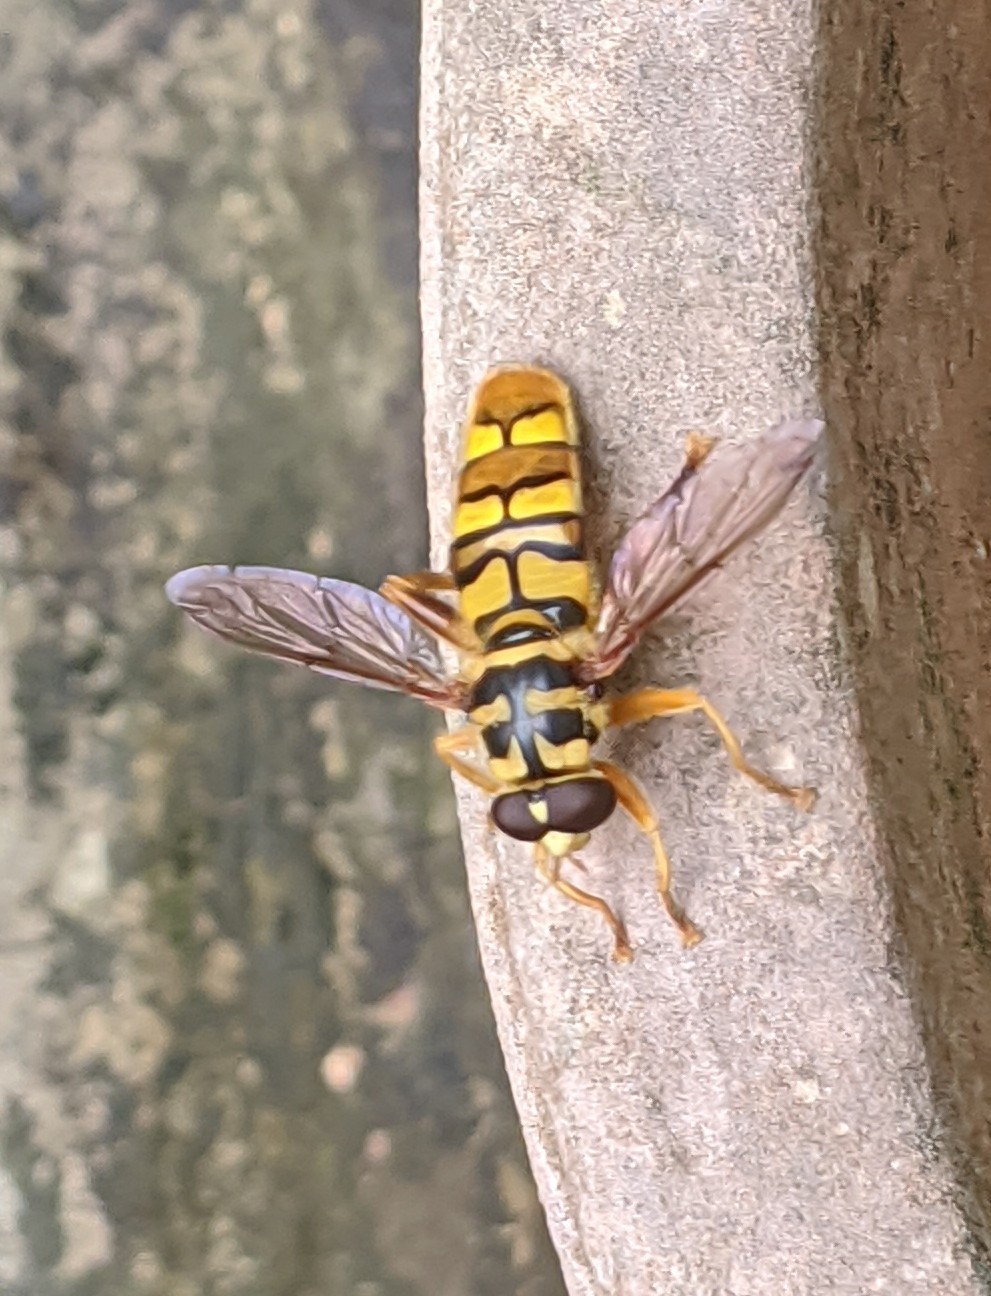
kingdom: Animalia
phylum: Arthropoda
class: Insecta
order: Diptera
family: Syrphidae
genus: Milesia
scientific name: Milesia virginiensis
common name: Virginia giant
